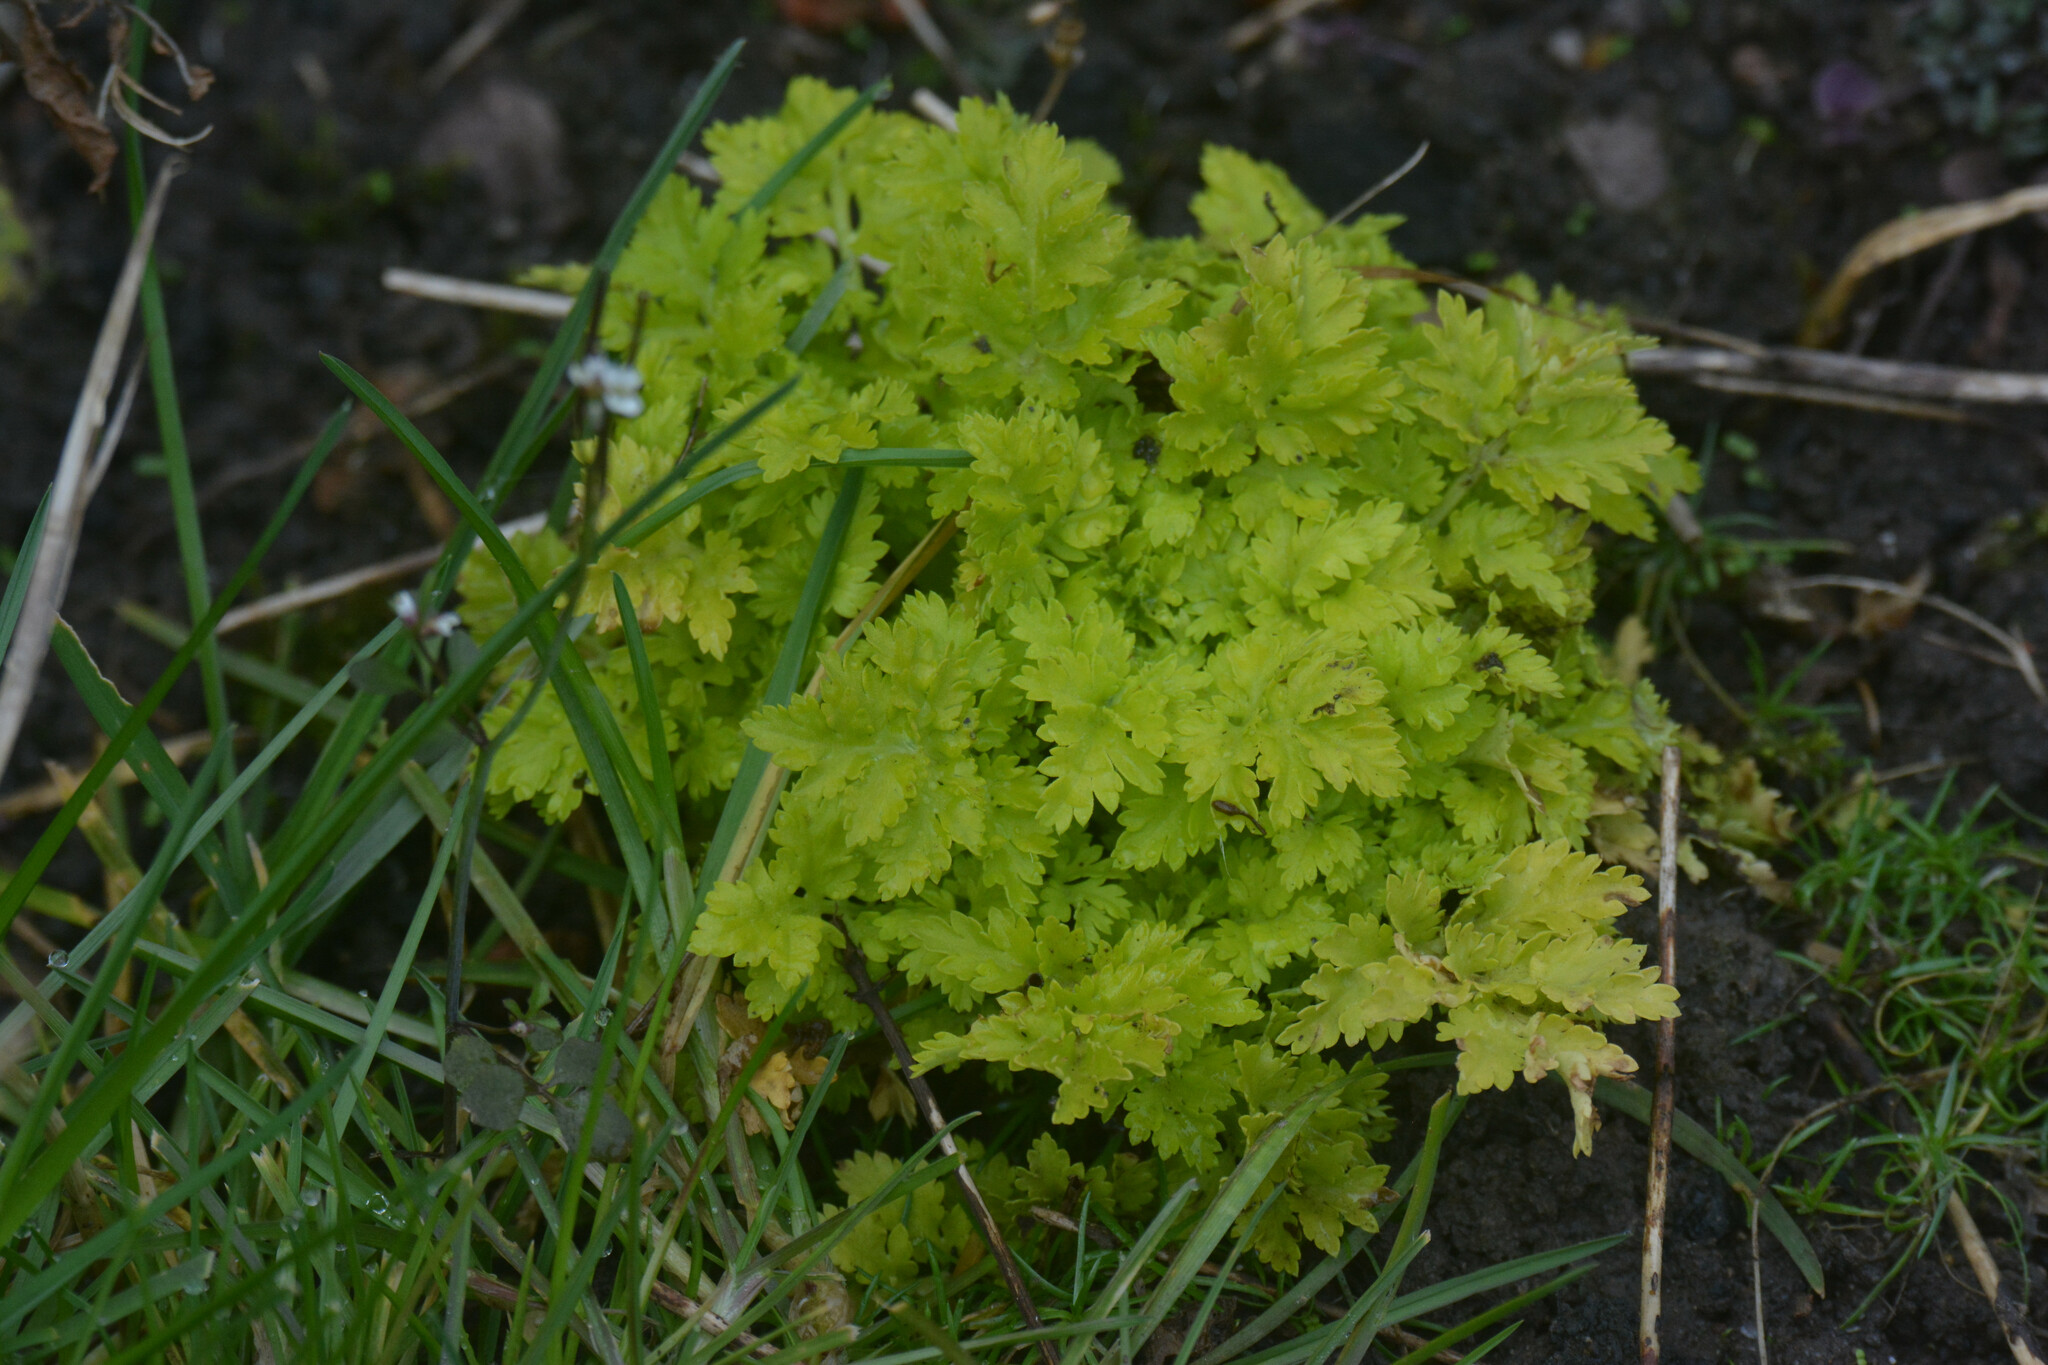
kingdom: Plantae
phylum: Tracheophyta
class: Magnoliopsida
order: Asterales
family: Asteraceae
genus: Tanacetum
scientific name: Tanacetum parthenium
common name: Feverfew
